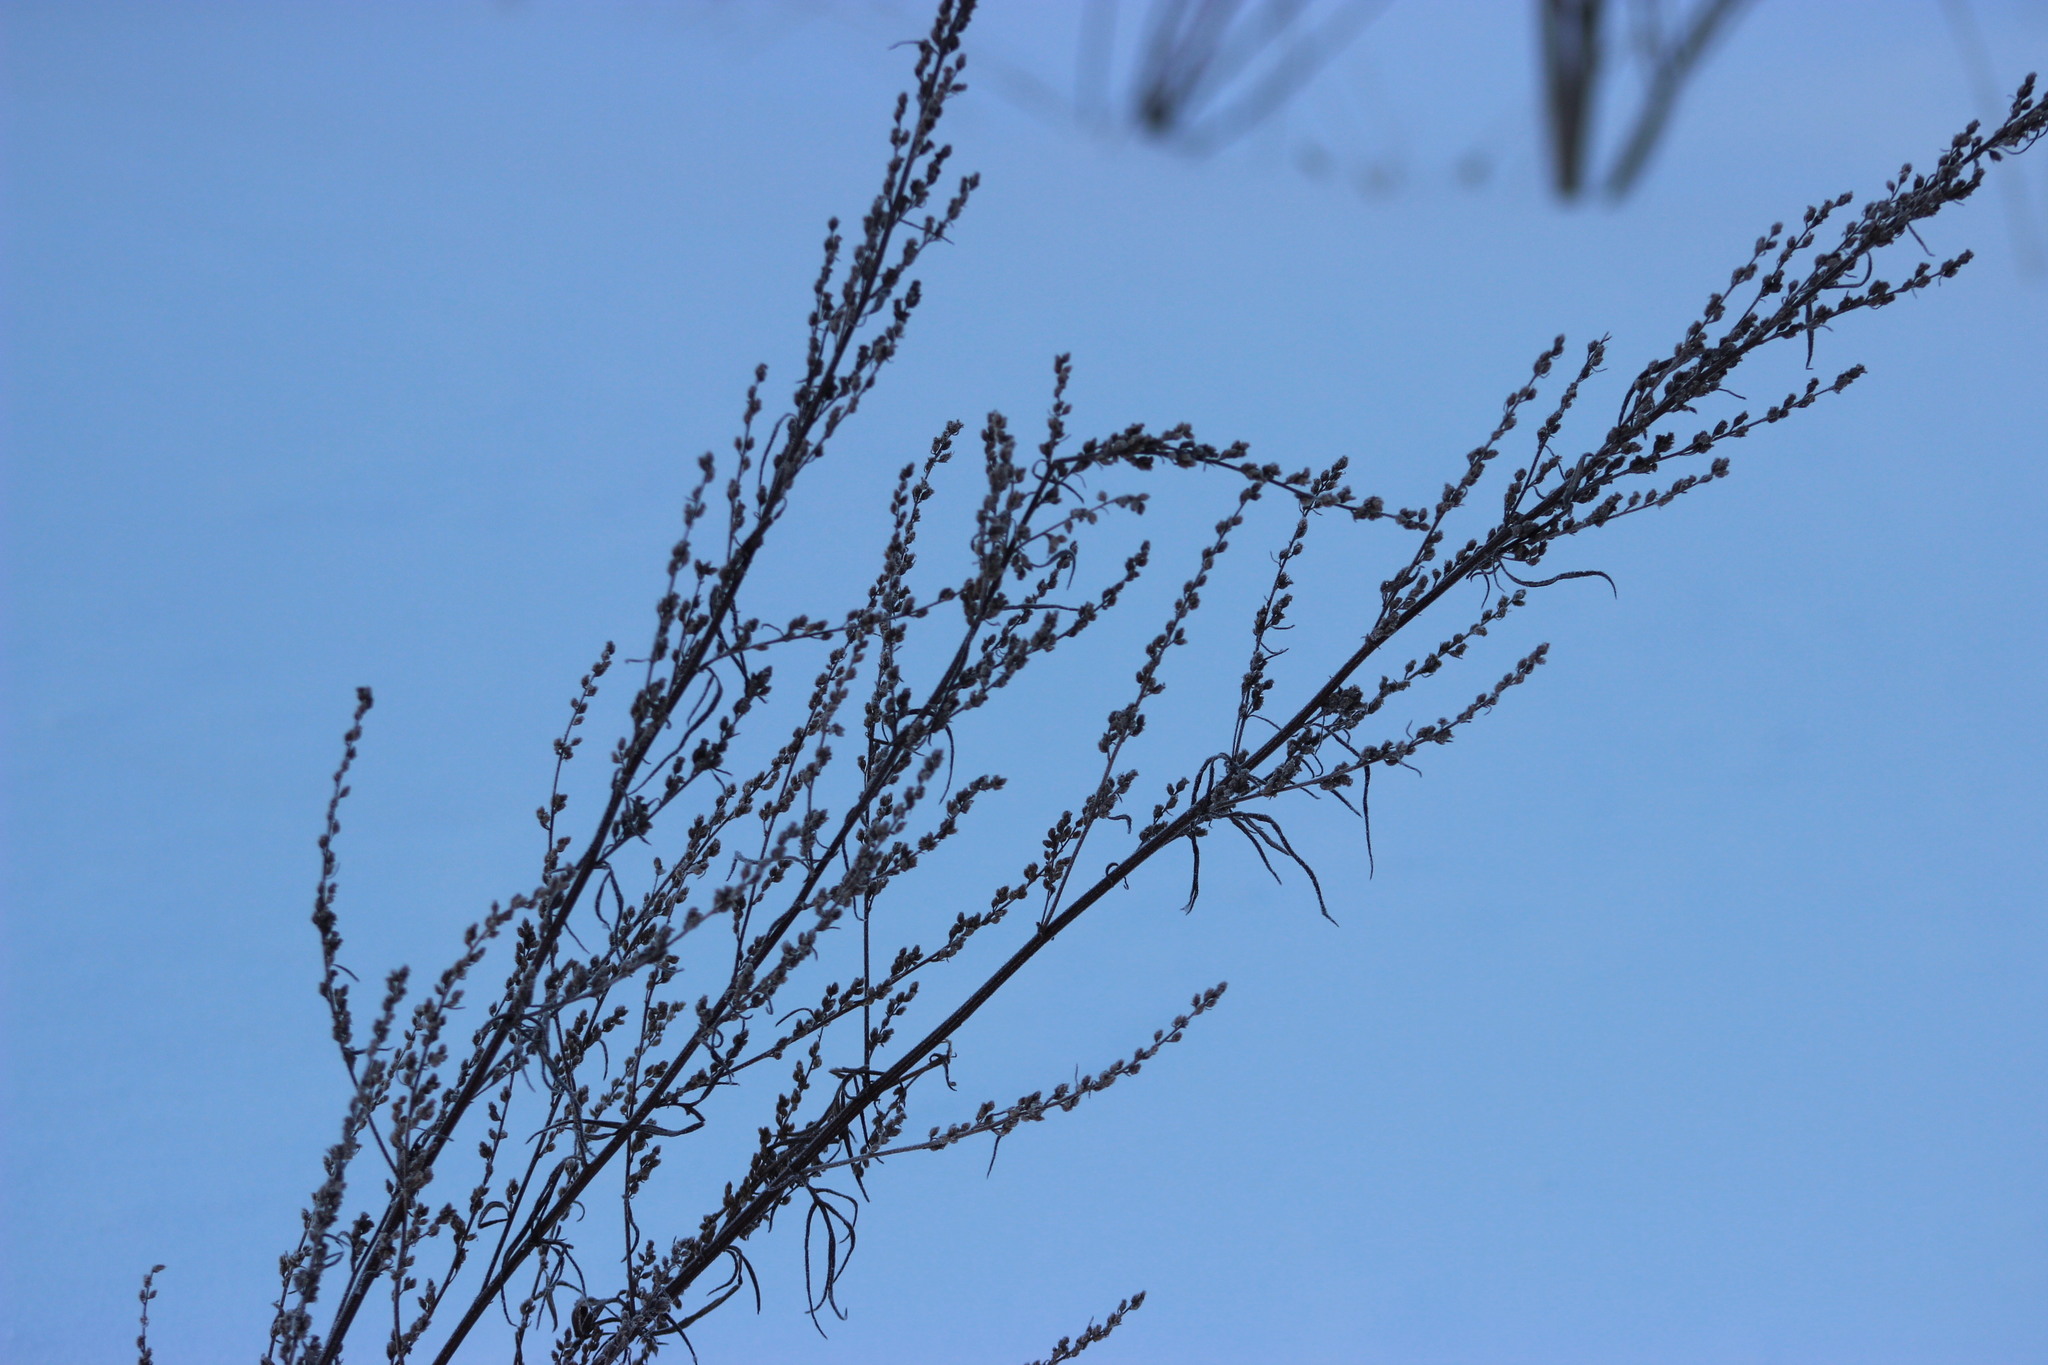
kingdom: Plantae
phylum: Tracheophyta
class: Magnoliopsida
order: Asterales
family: Asteraceae
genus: Artemisia
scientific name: Artemisia vulgaris
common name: Mugwort
